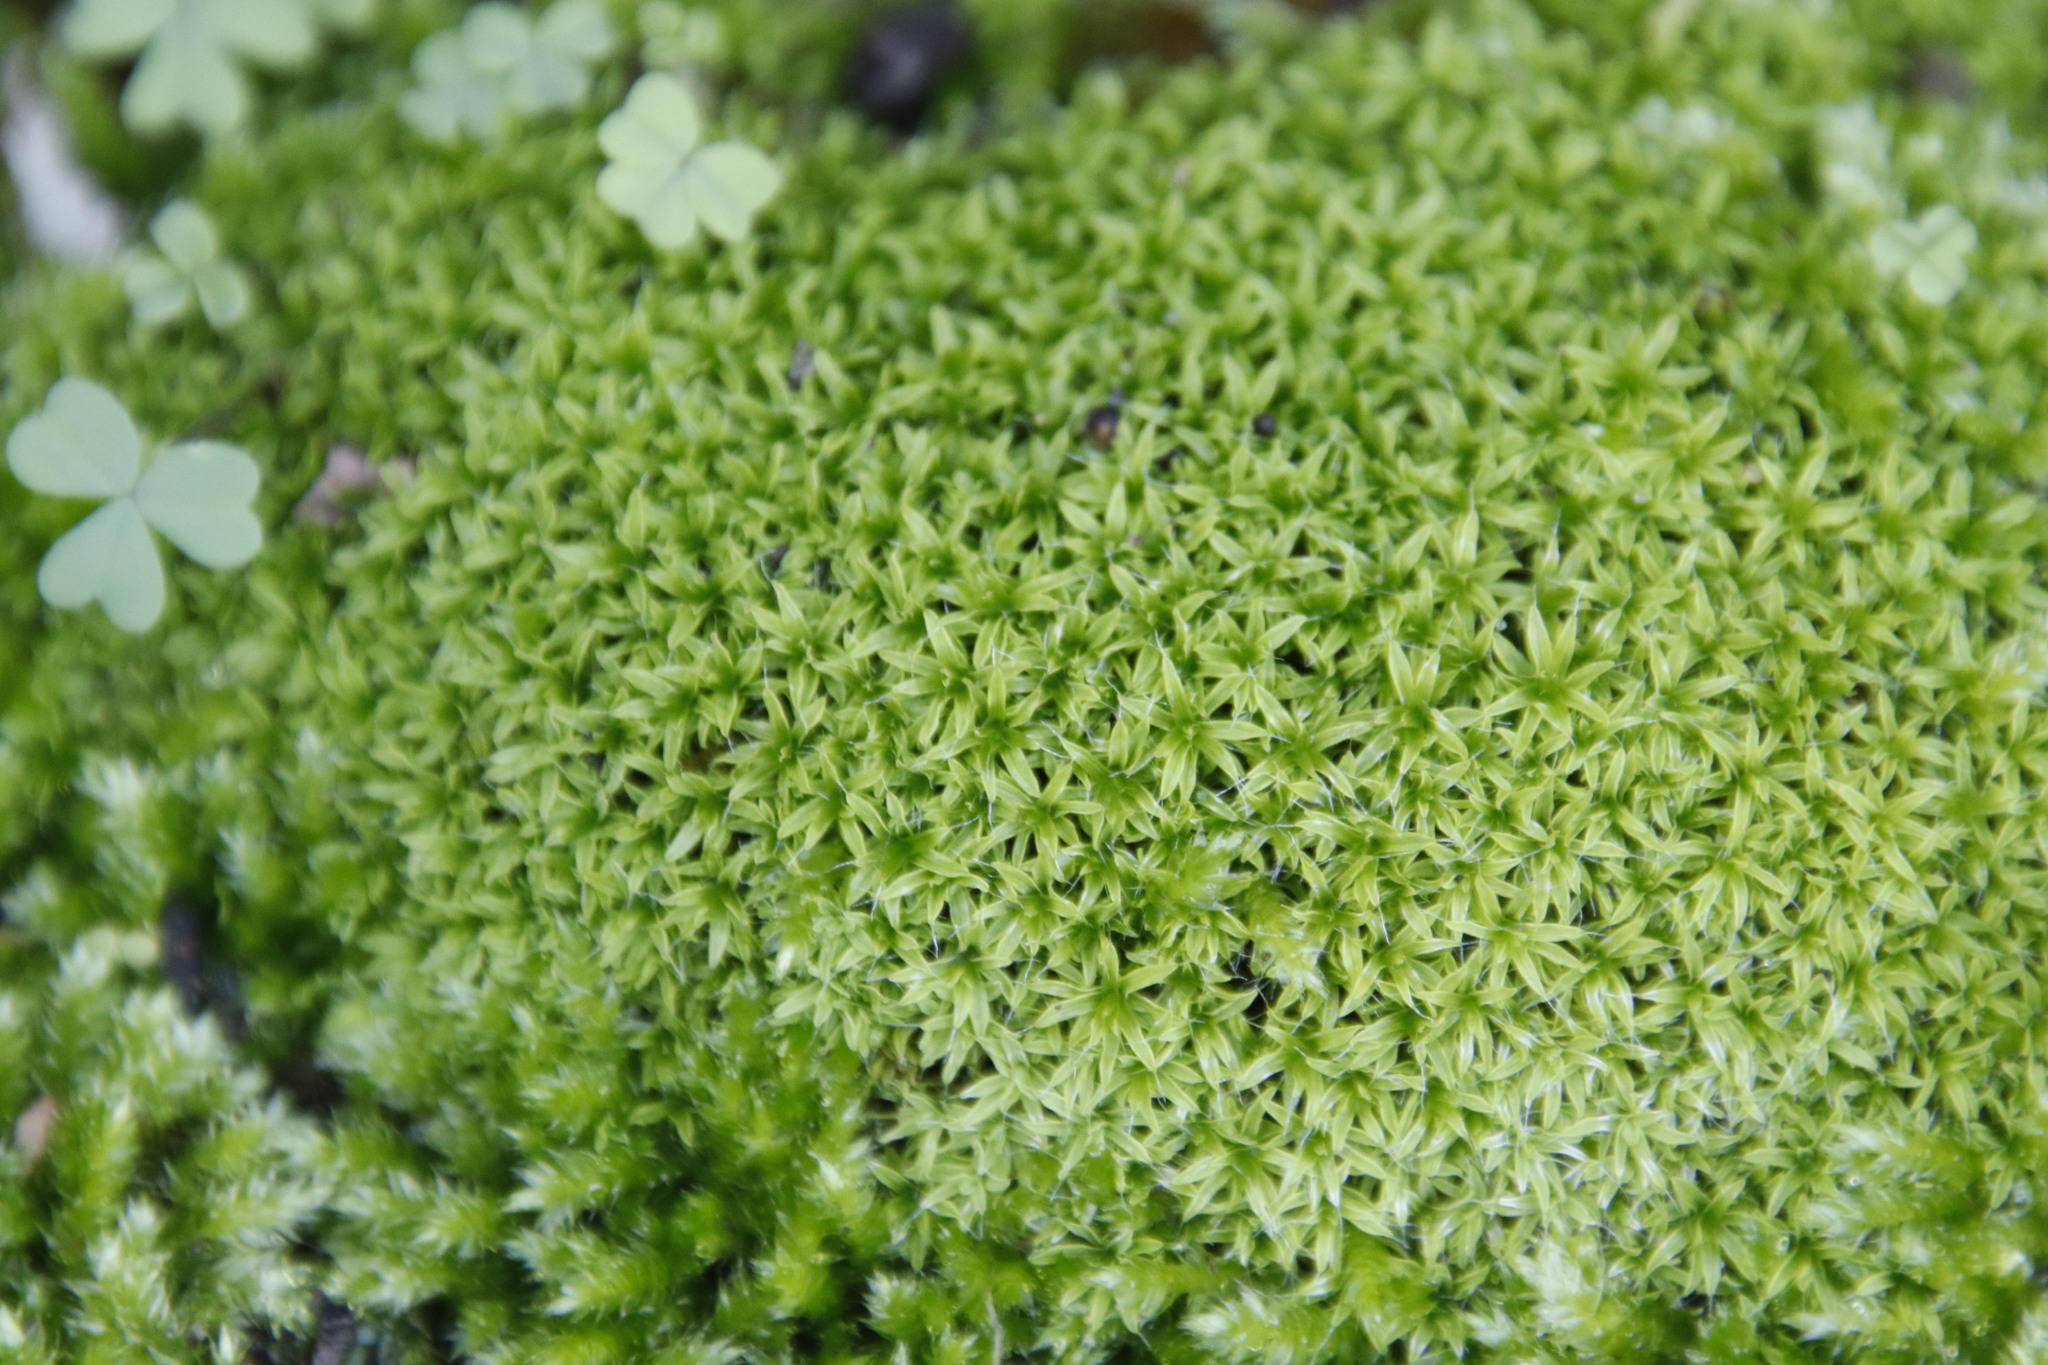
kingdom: Plantae
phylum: Bryophyta
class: Bryopsida
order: Pottiales
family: Pottiaceae
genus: Pseudocrossidium
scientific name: Pseudocrossidium crinitum
